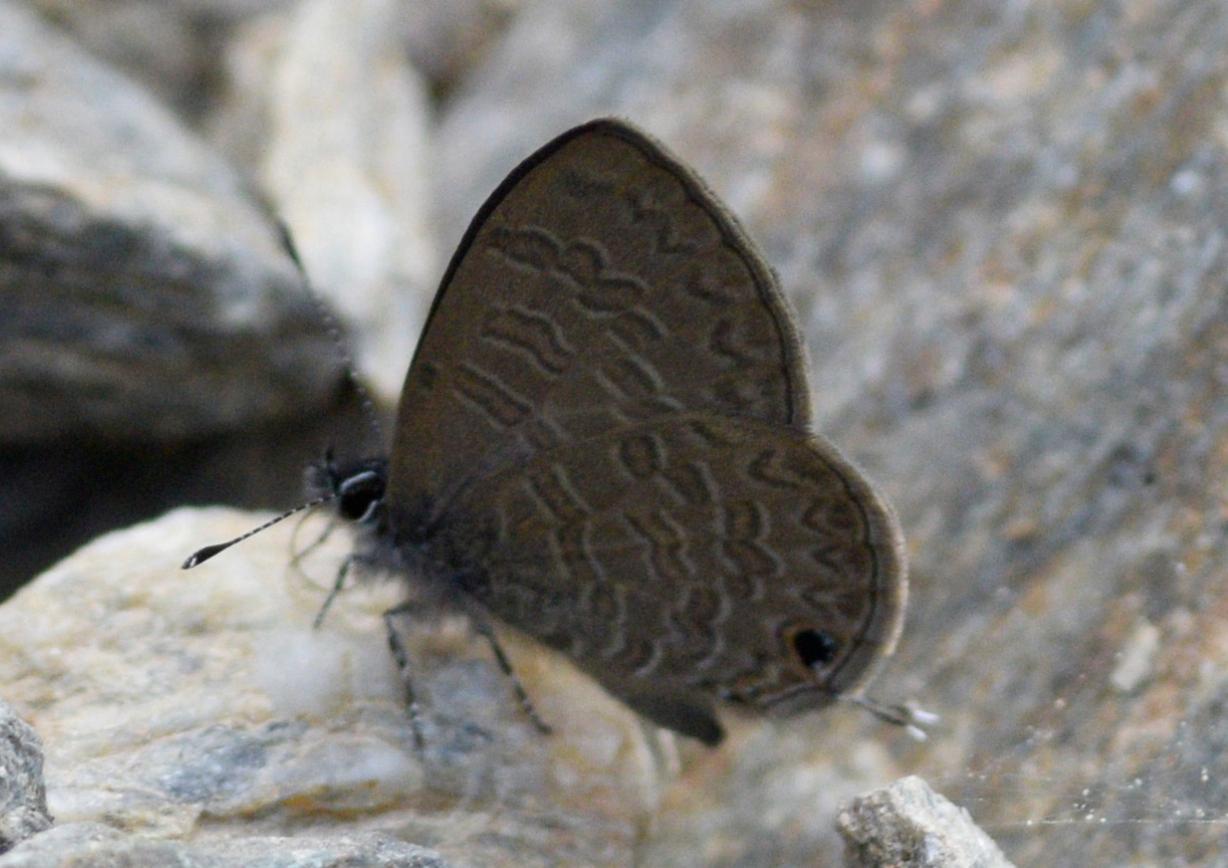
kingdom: Animalia
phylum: Arthropoda
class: Insecta
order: Lepidoptera
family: Lycaenidae
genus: Prosotas
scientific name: Prosotas nora
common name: Common line blue
